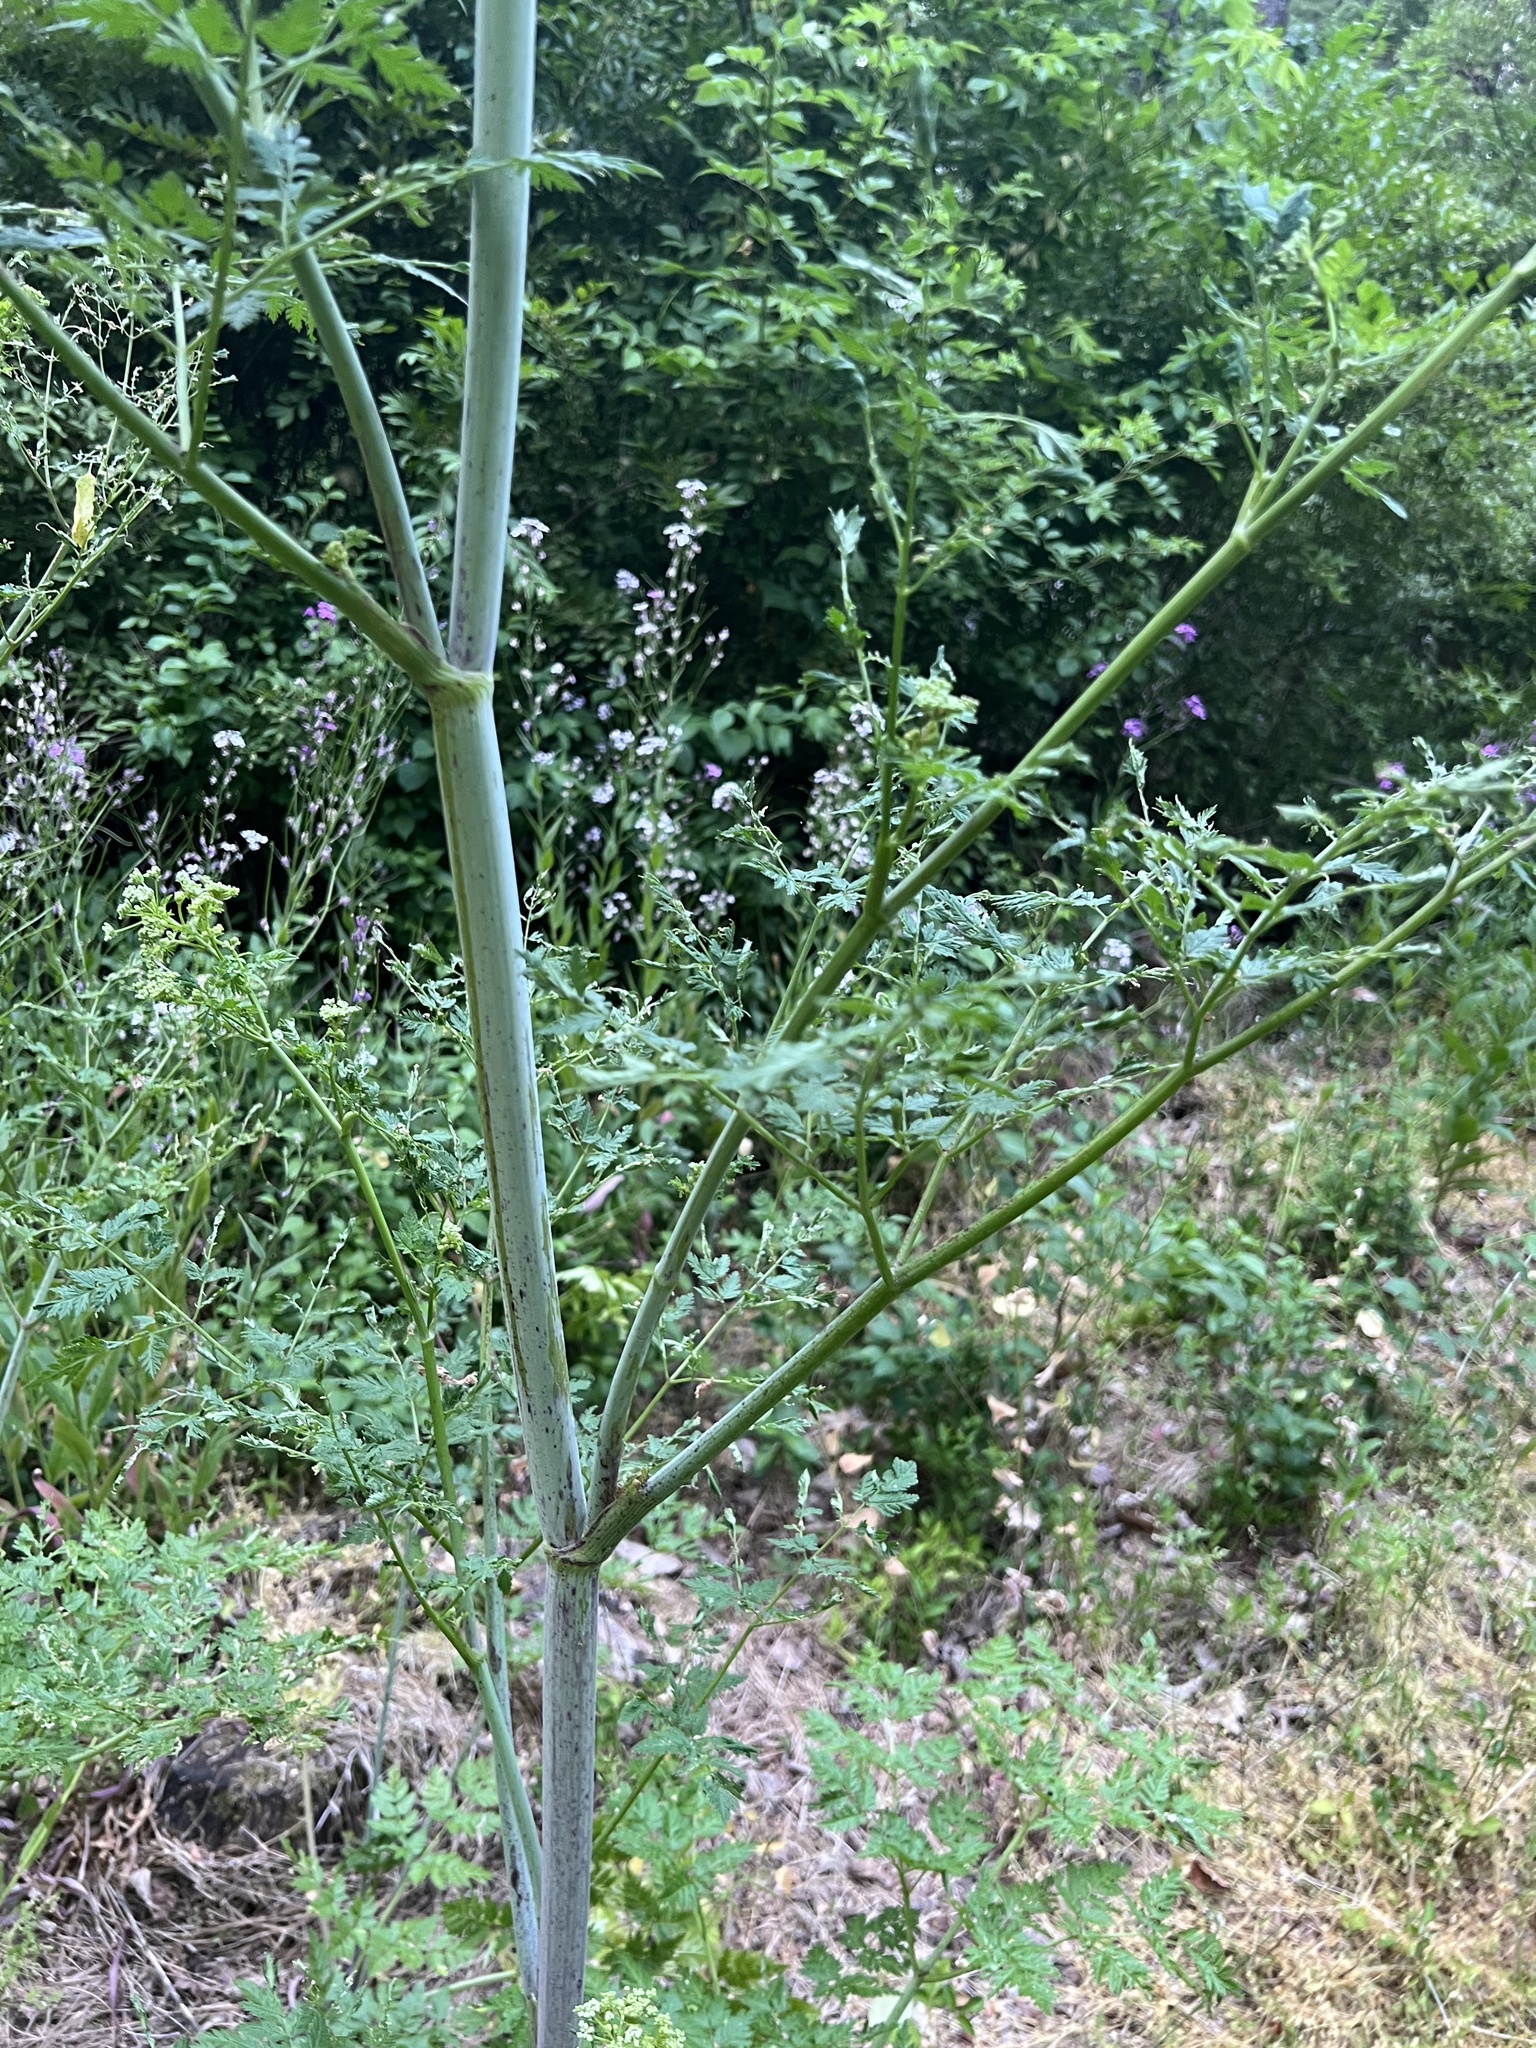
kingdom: Plantae
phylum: Tracheophyta
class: Magnoliopsida
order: Apiales
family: Apiaceae
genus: Conium
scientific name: Conium maculatum
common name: Hemlock
